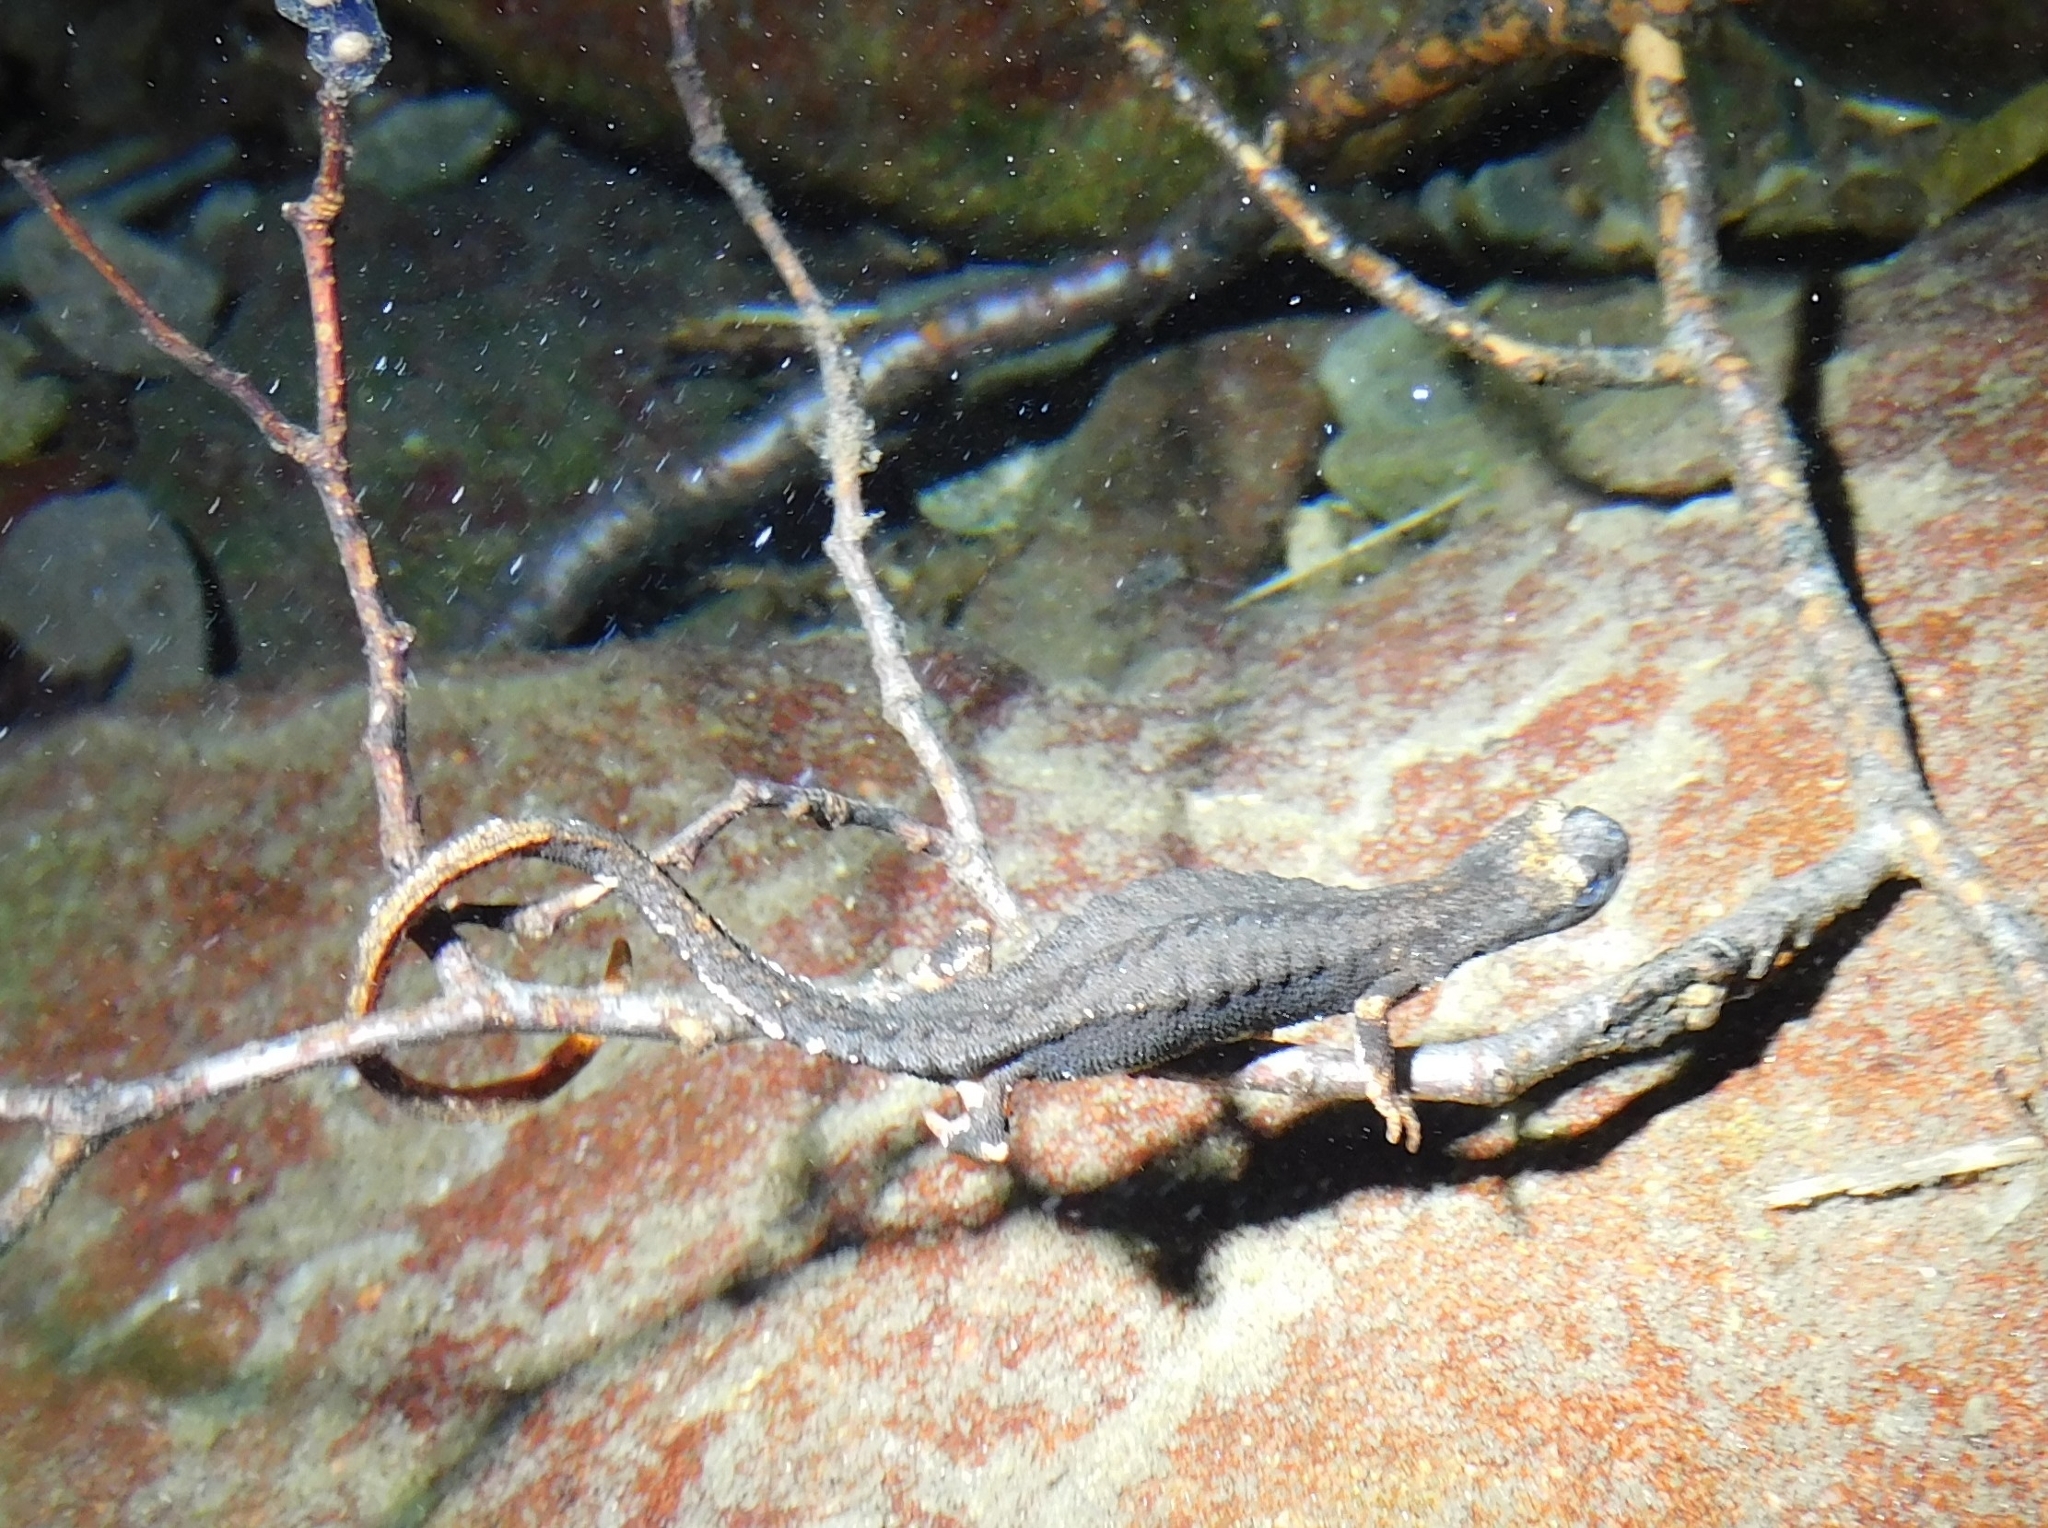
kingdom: Animalia
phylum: Chordata
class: Amphibia
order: Caudata
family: Salamandridae
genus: Salamandrina
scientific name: Salamandrina perspicillata
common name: Northern spectacled salamander
